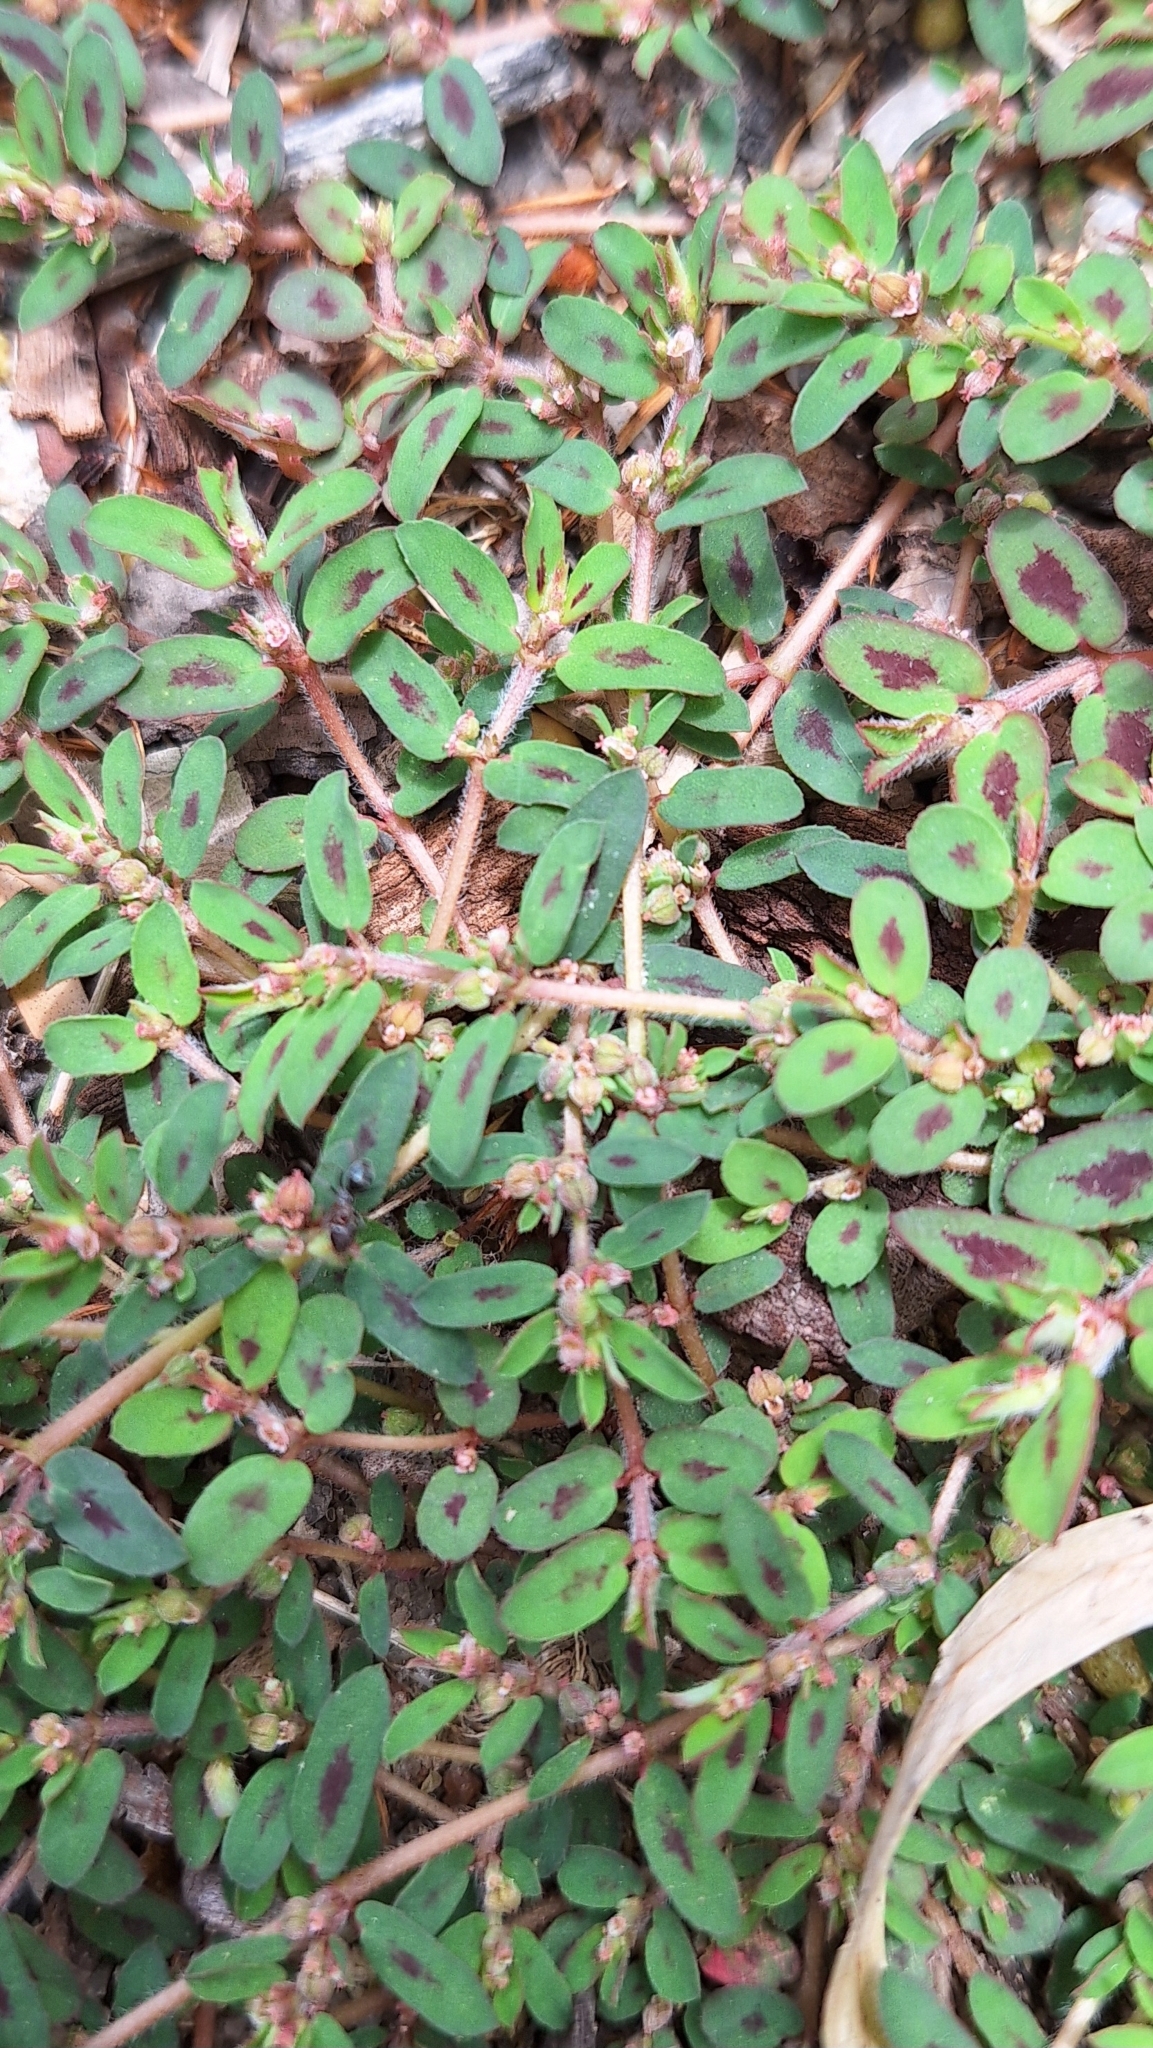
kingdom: Plantae
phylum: Tracheophyta
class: Magnoliopsida
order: Malpighiales
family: Euphorbiaceae
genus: Euphorbia
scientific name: Euphorbia maculata
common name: Spotted spurge
